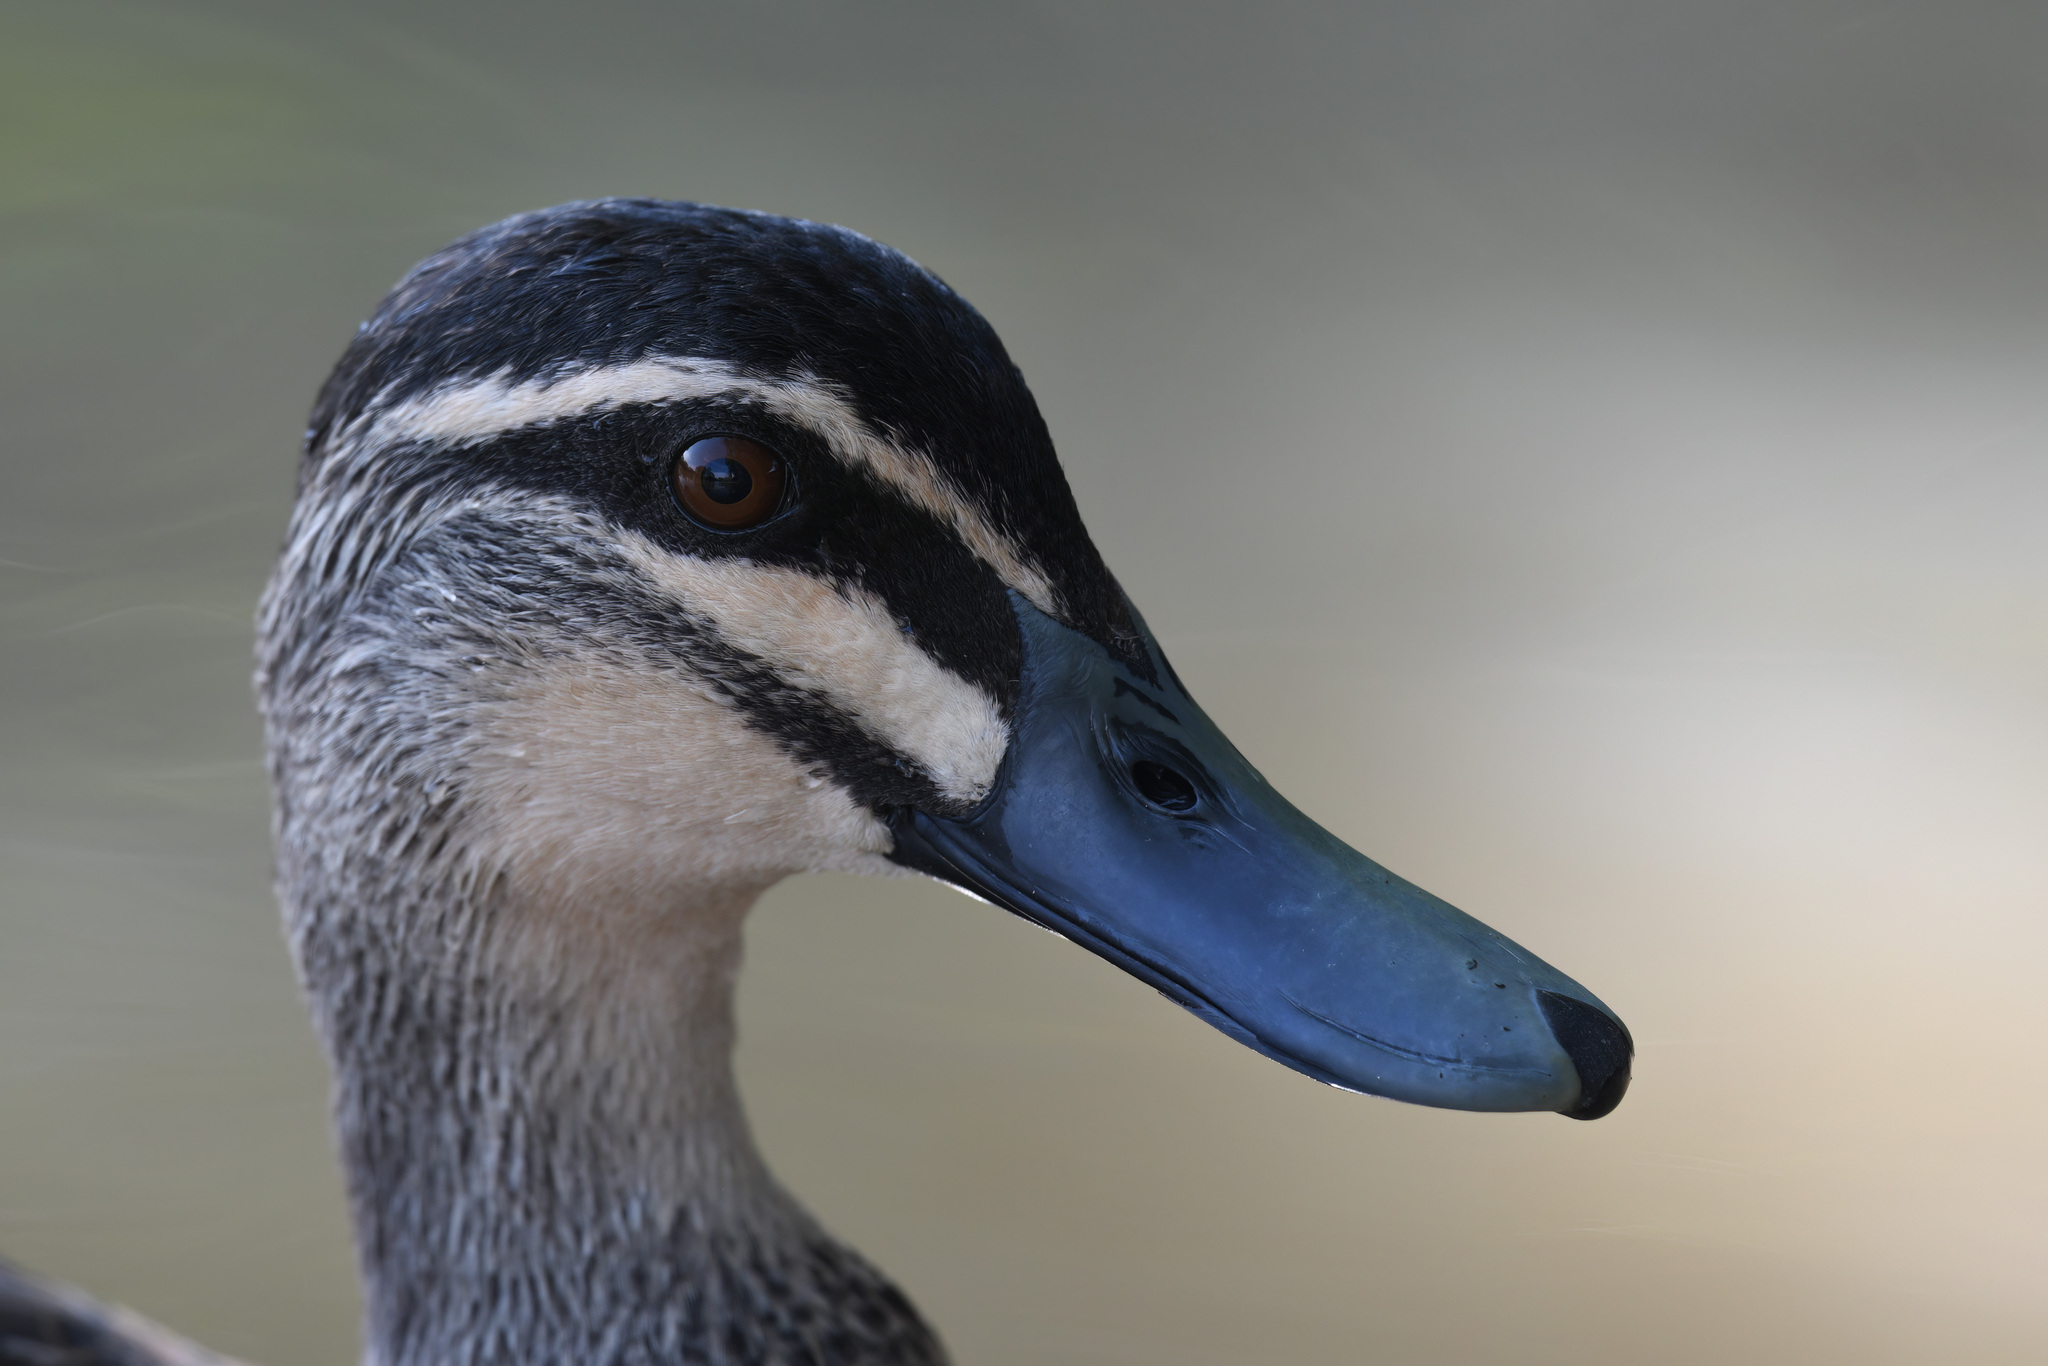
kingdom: Animalia
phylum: Chordata
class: Aves
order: Anseriformes
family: Anatidae
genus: Anas
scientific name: Anas superciliosa
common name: Pacific black duck
